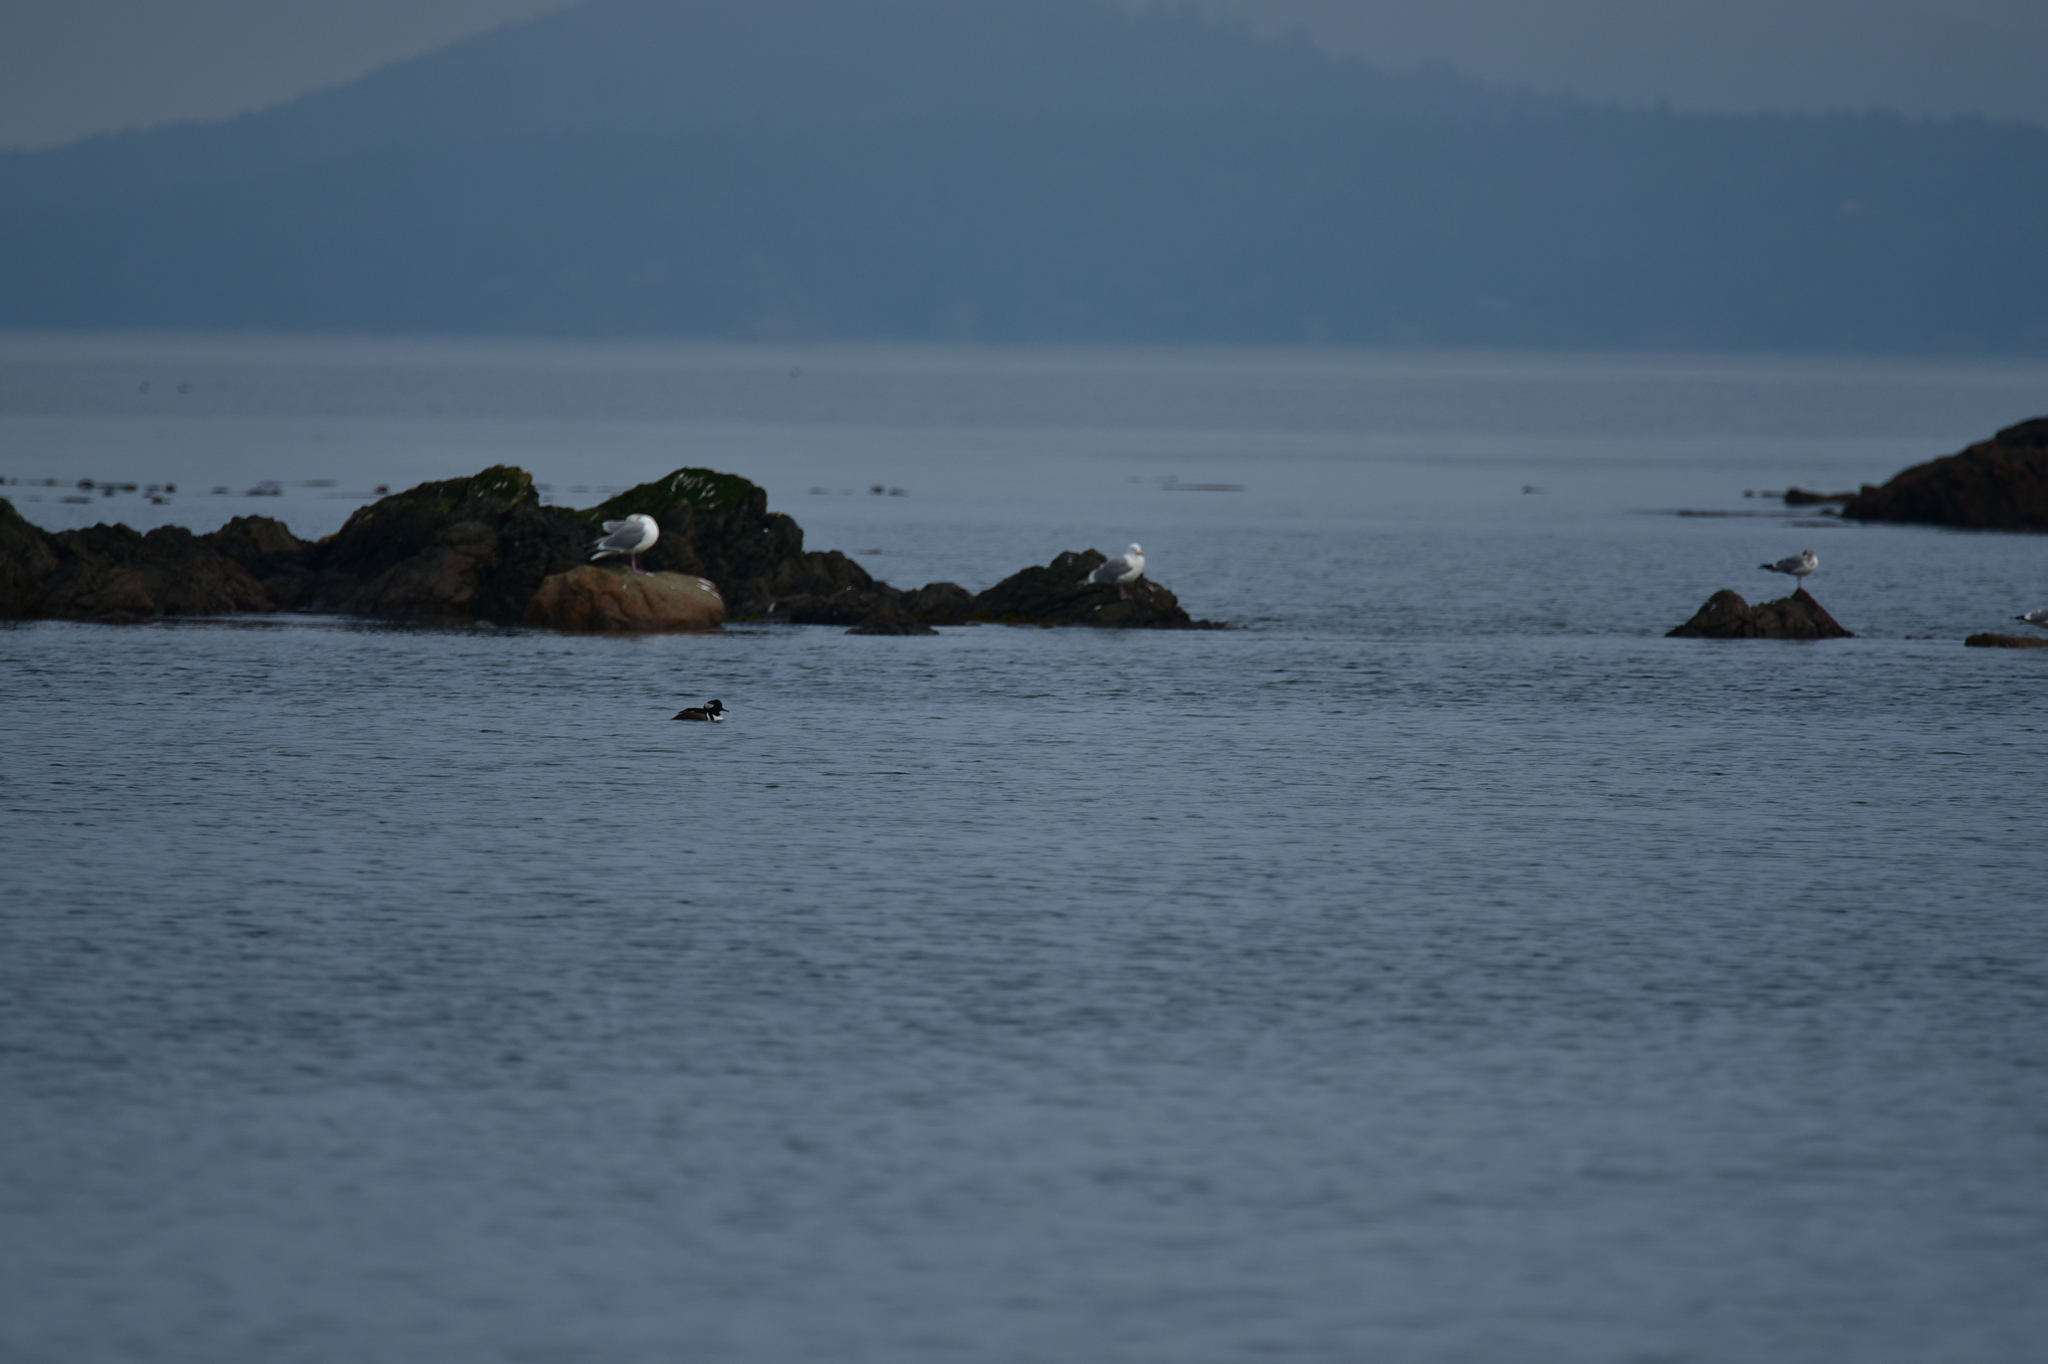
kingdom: Animalia
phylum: Chordata
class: Aves
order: Anseriformes
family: Anatidae
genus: Lophodytes
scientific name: Lophodytes cucullatus
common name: Hooded merganser
